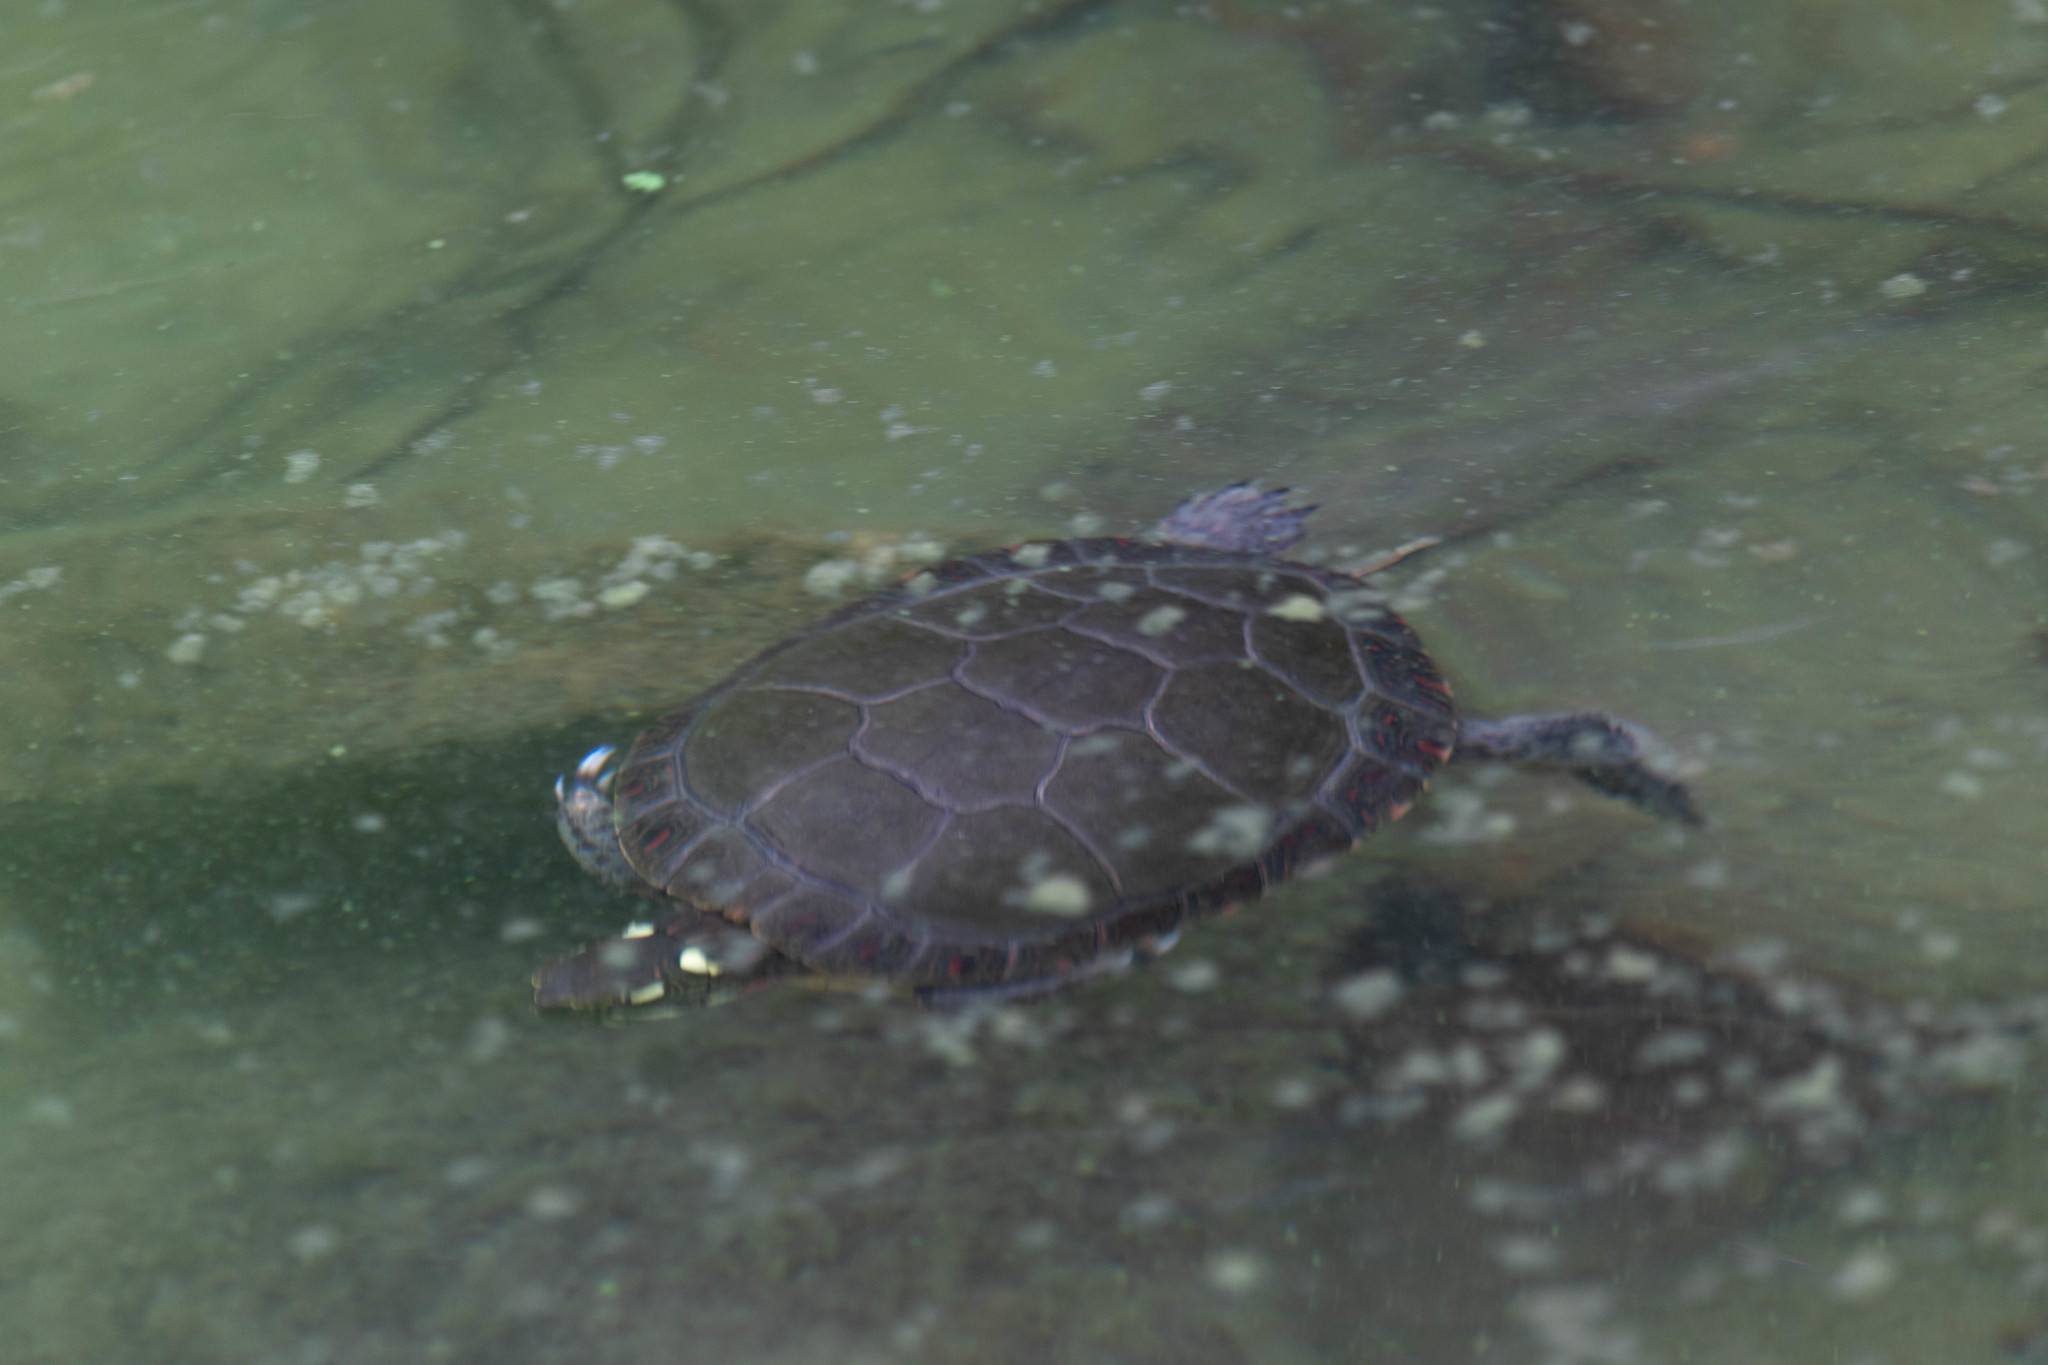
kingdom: Animalia
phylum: Chordata
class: Testudines
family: Emydidae
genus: Chrysemys
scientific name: Chrysemys picta
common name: Painted turtle
